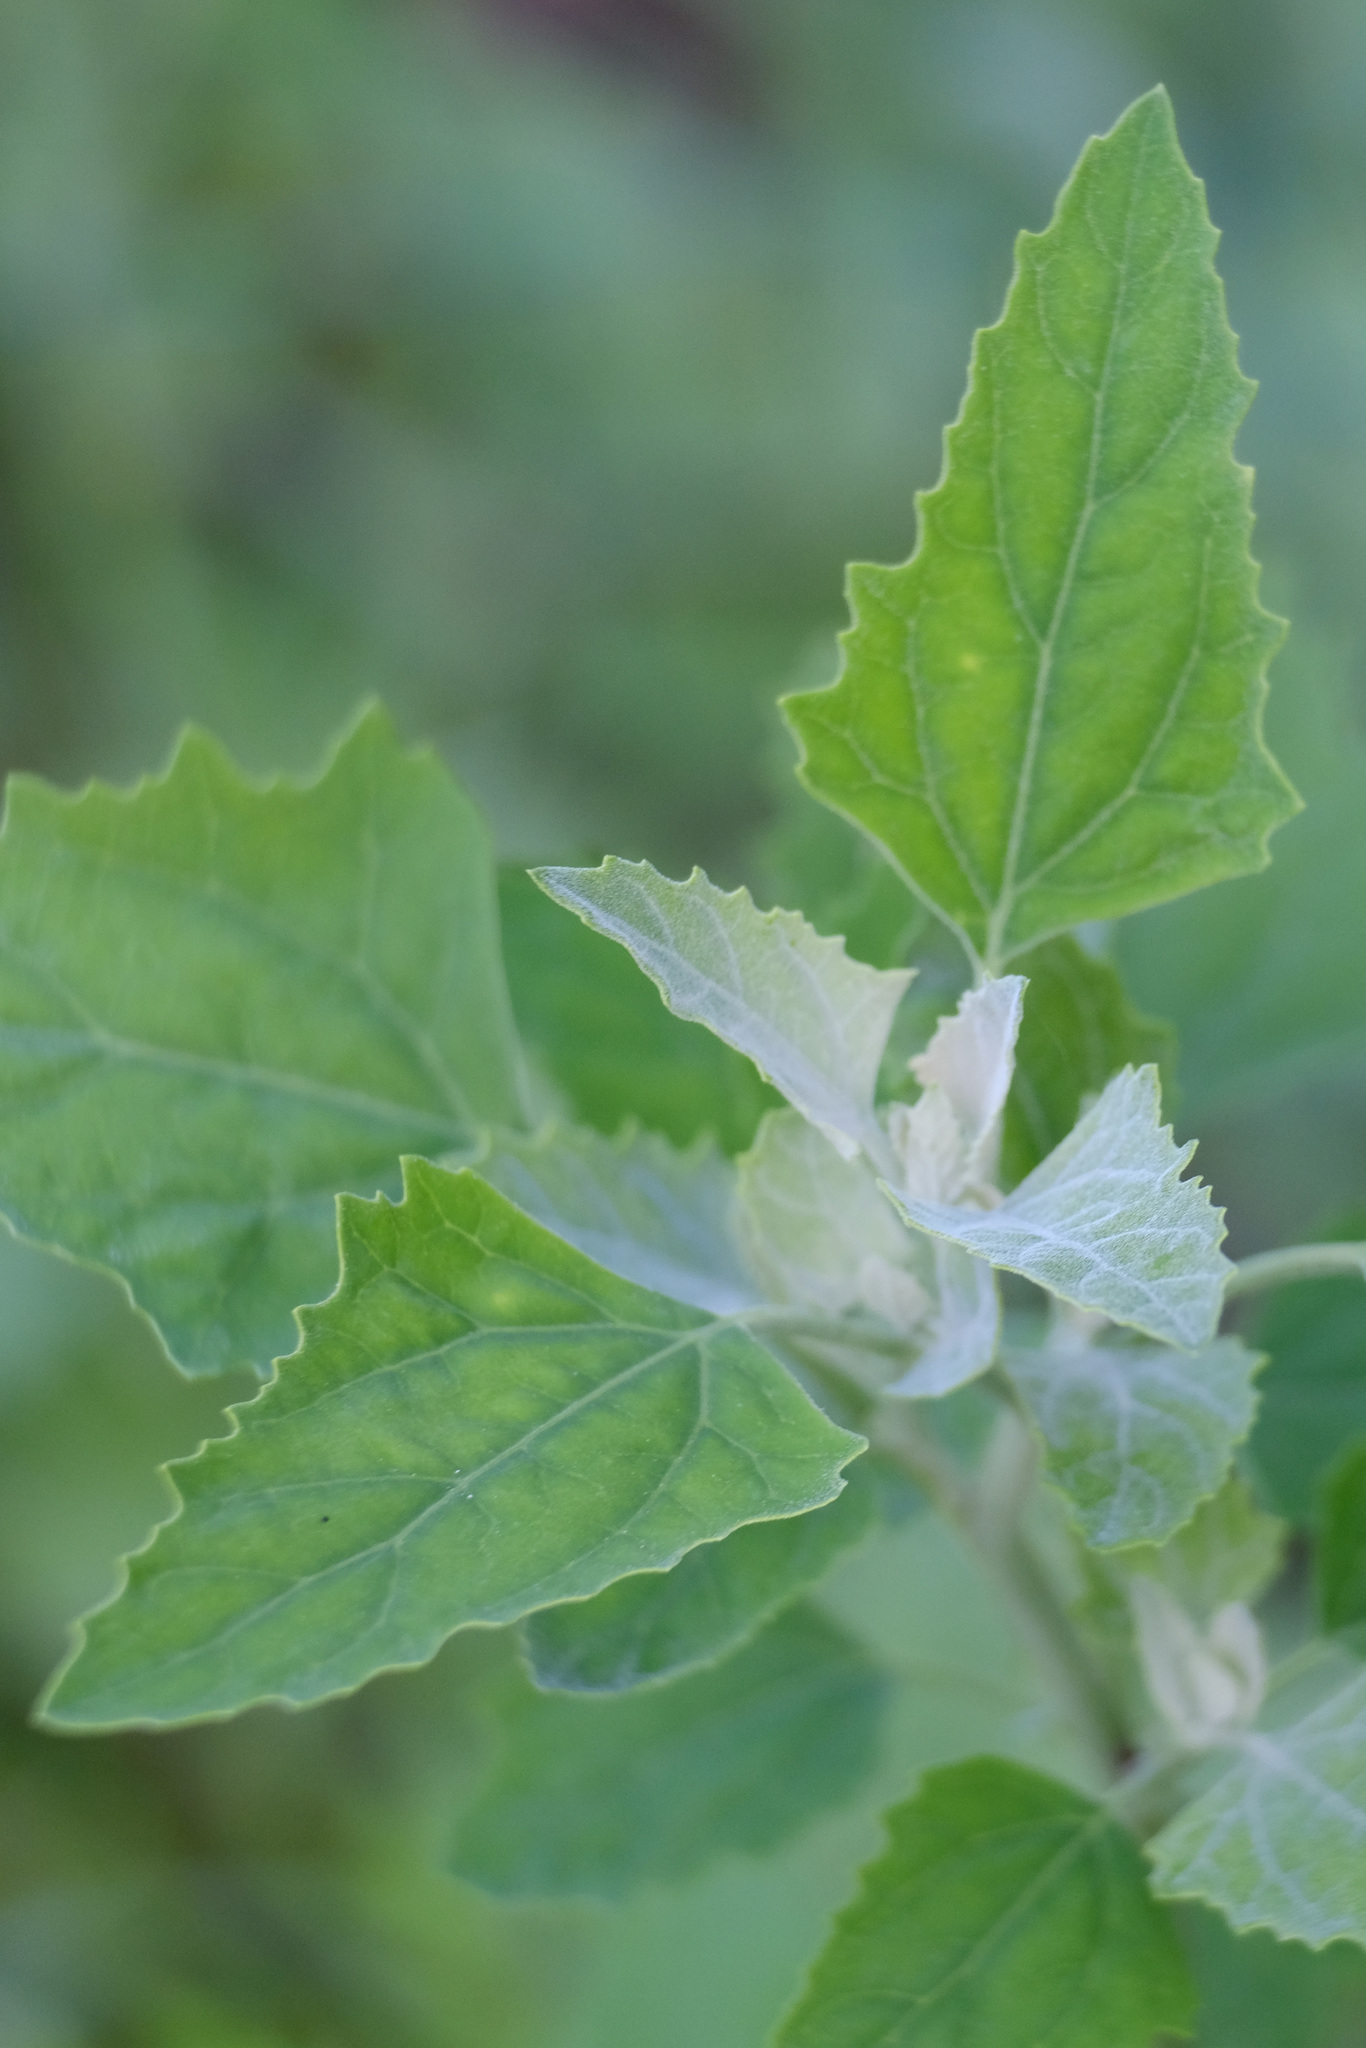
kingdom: Plantae
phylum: Tracheophyta
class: Magnoliopsida
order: Caryophyllales
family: Amaranthaceae
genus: Chenopodium
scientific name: Chenopodium album
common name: Fat-hen
